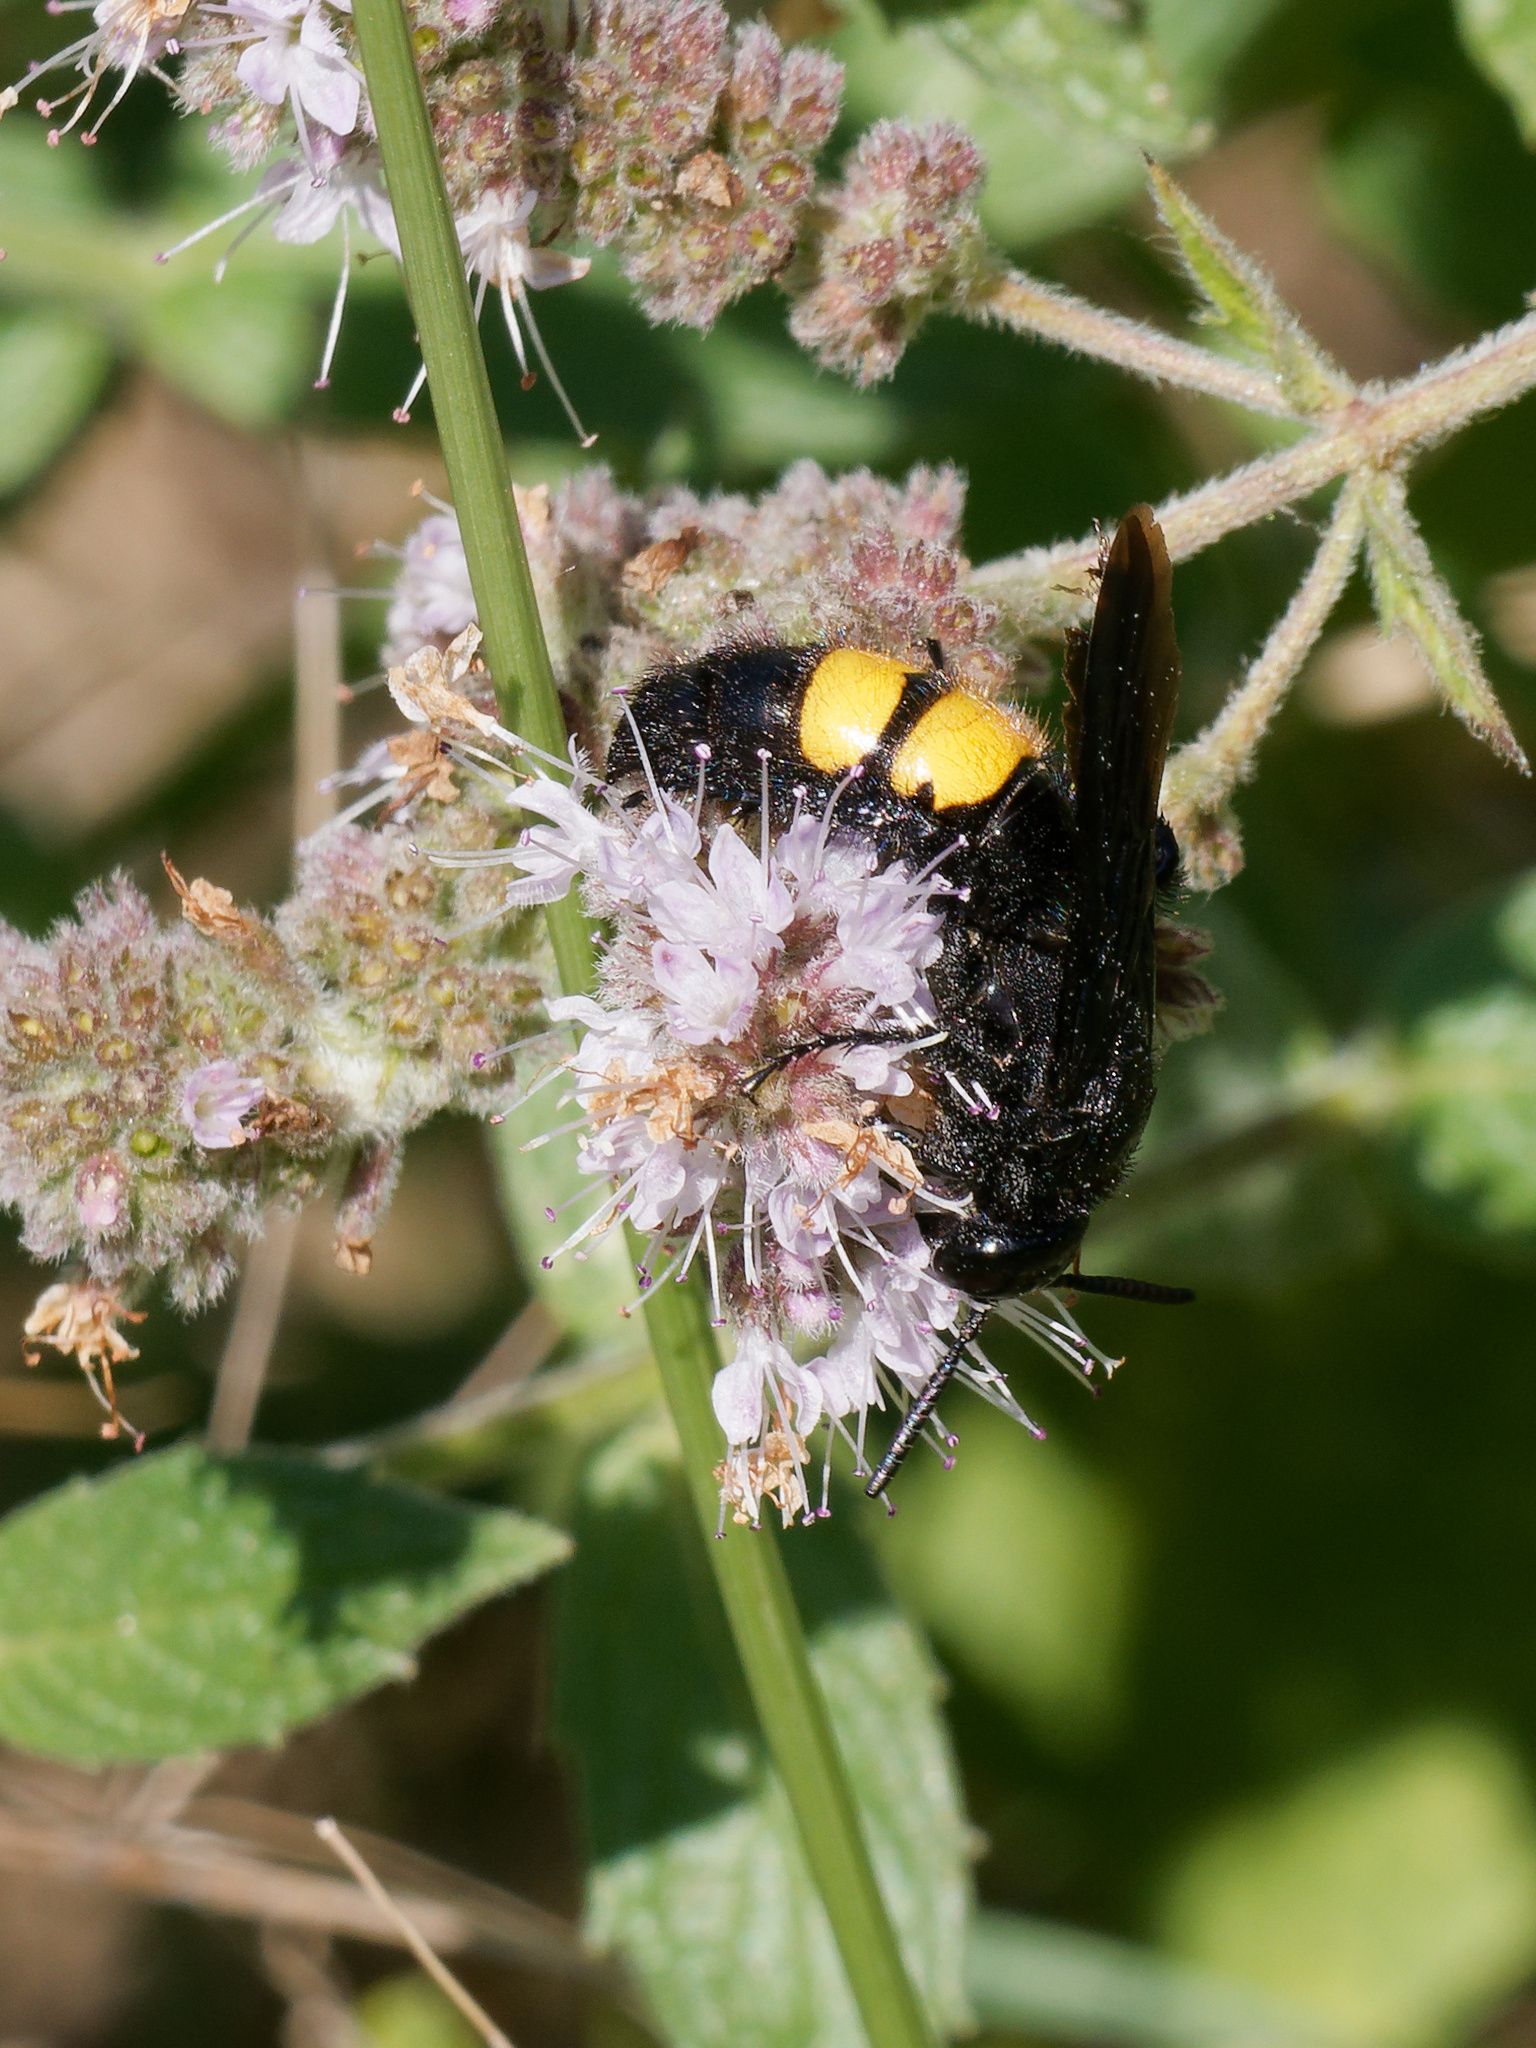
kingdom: Animalia
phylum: Arthropoda
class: Insecta
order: Hymenoptera
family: Scoliidae
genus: Scolia
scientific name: Scolia hirta
